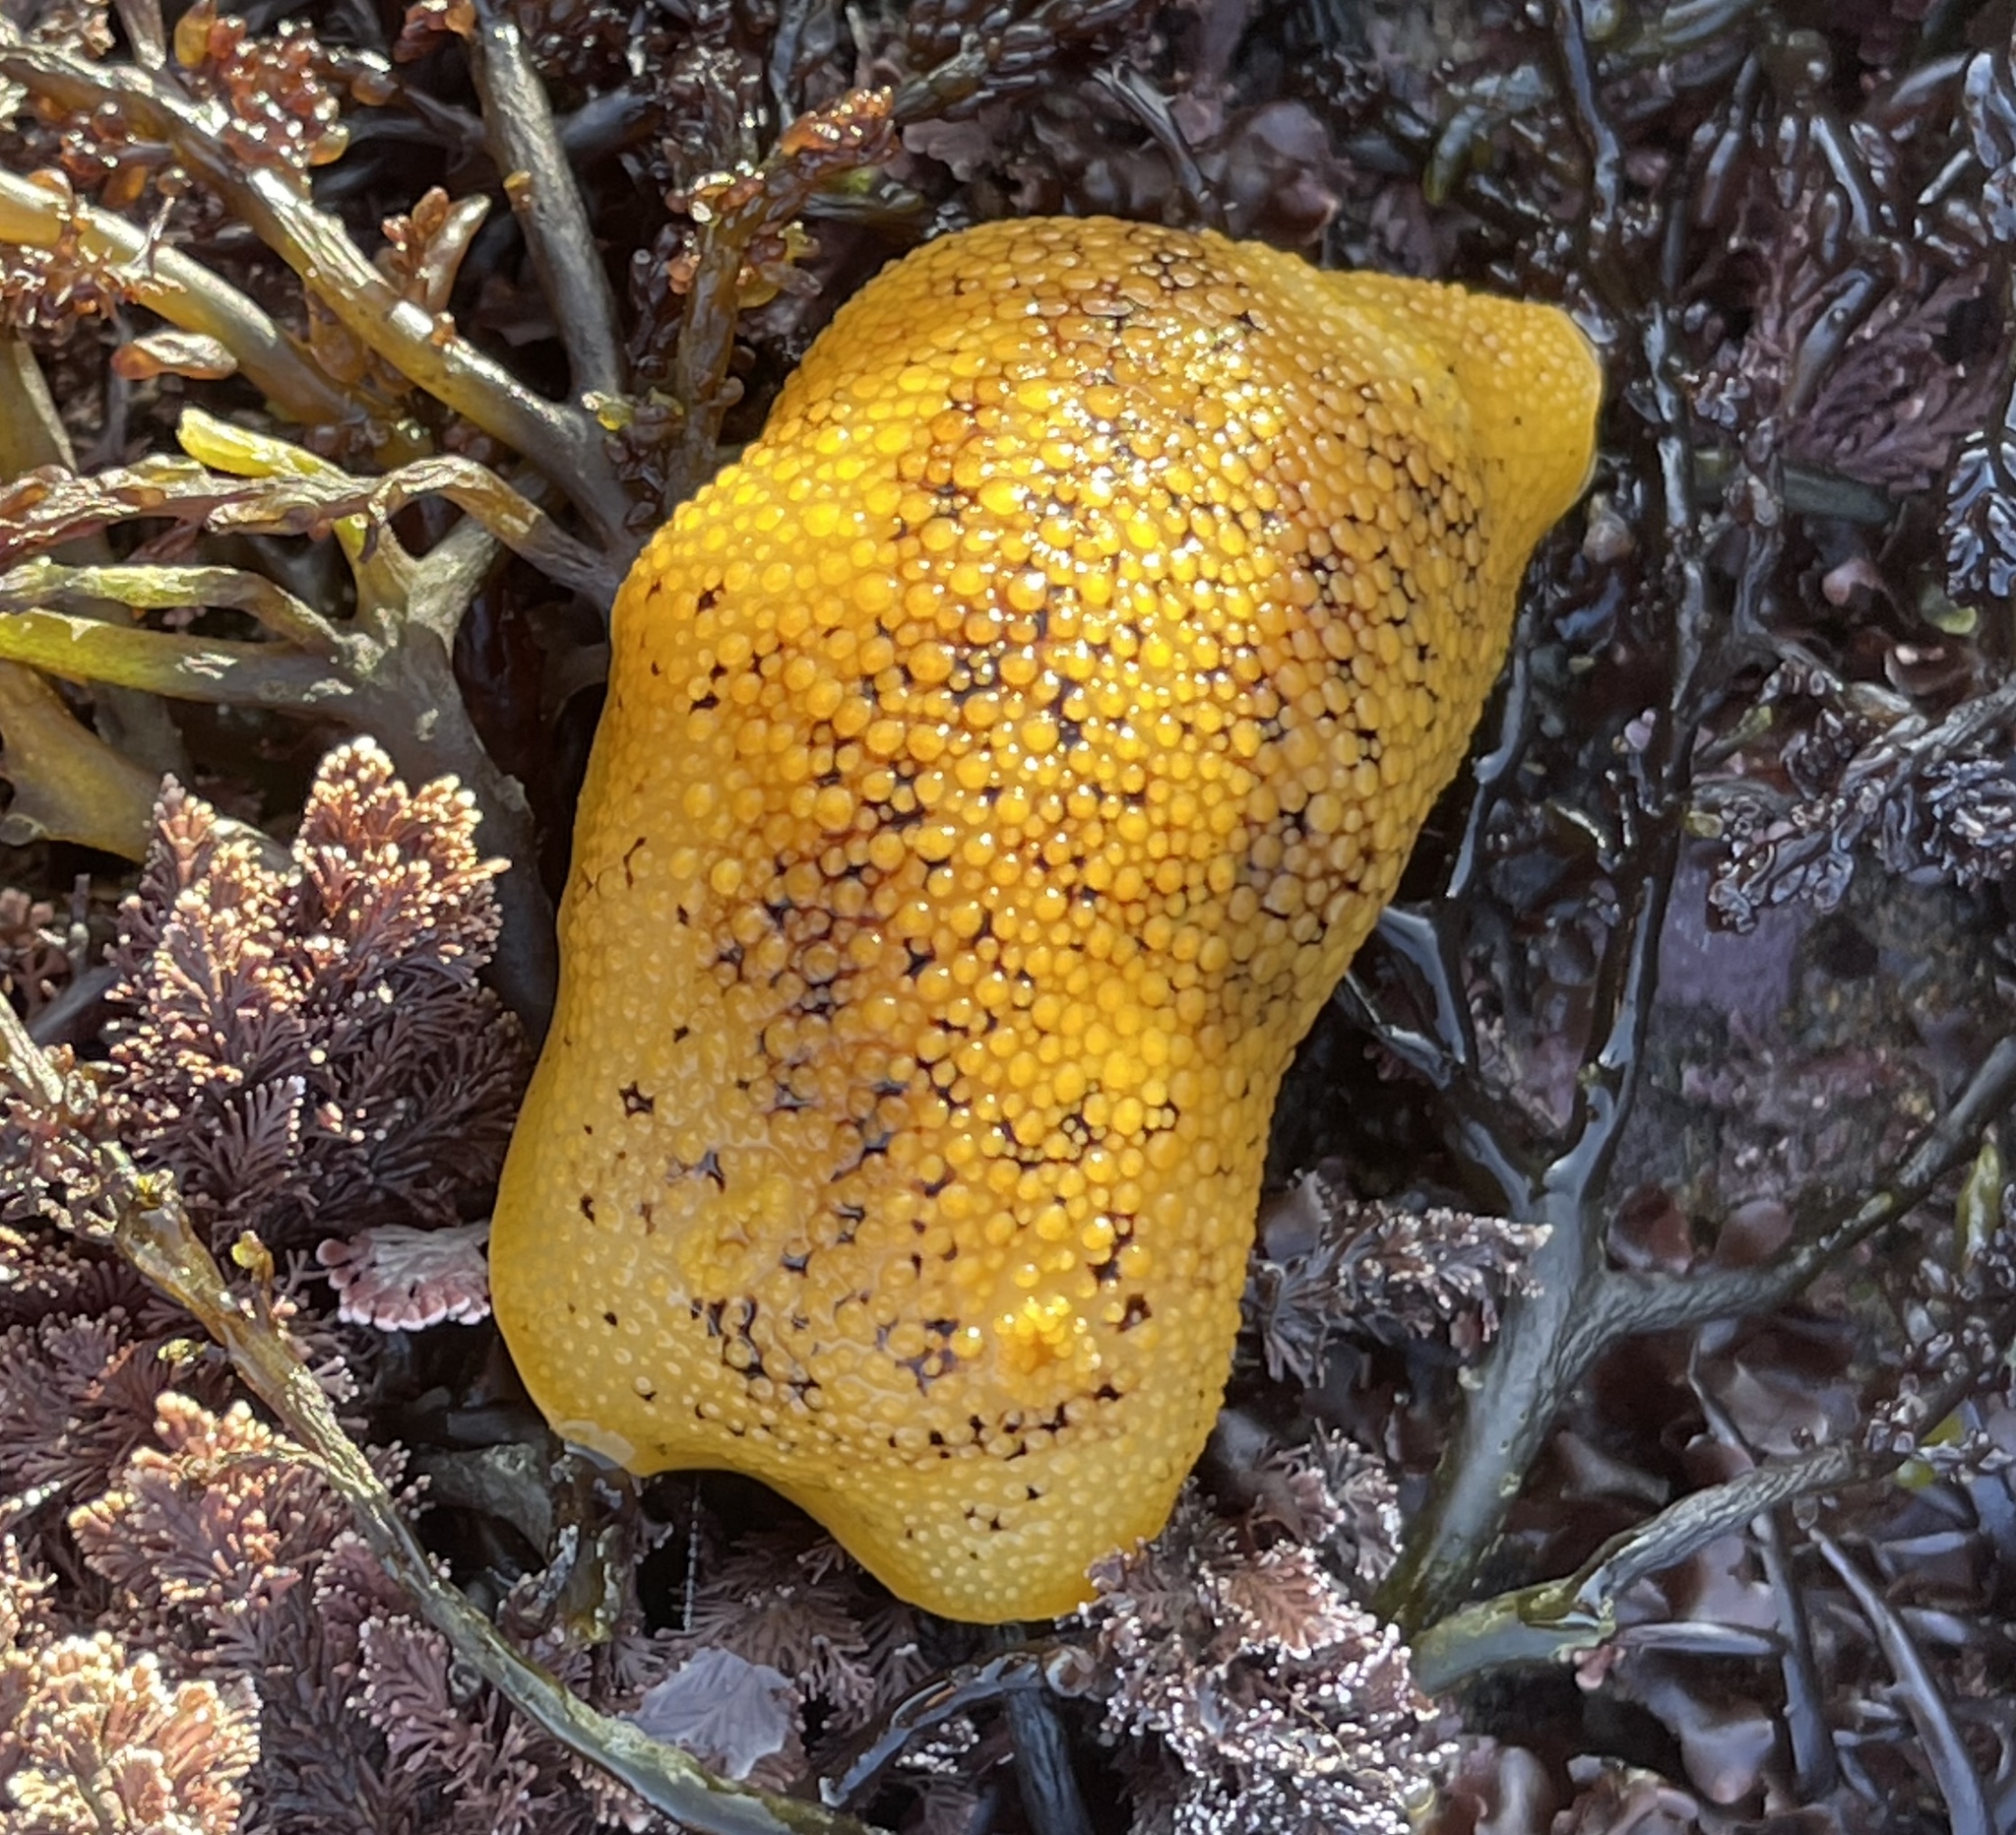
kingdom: Animalia
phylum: Mollusca
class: Gastropoda
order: Nudibranchia
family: Discodorididae
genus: Peltodoris
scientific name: Peltodoris nobilis
